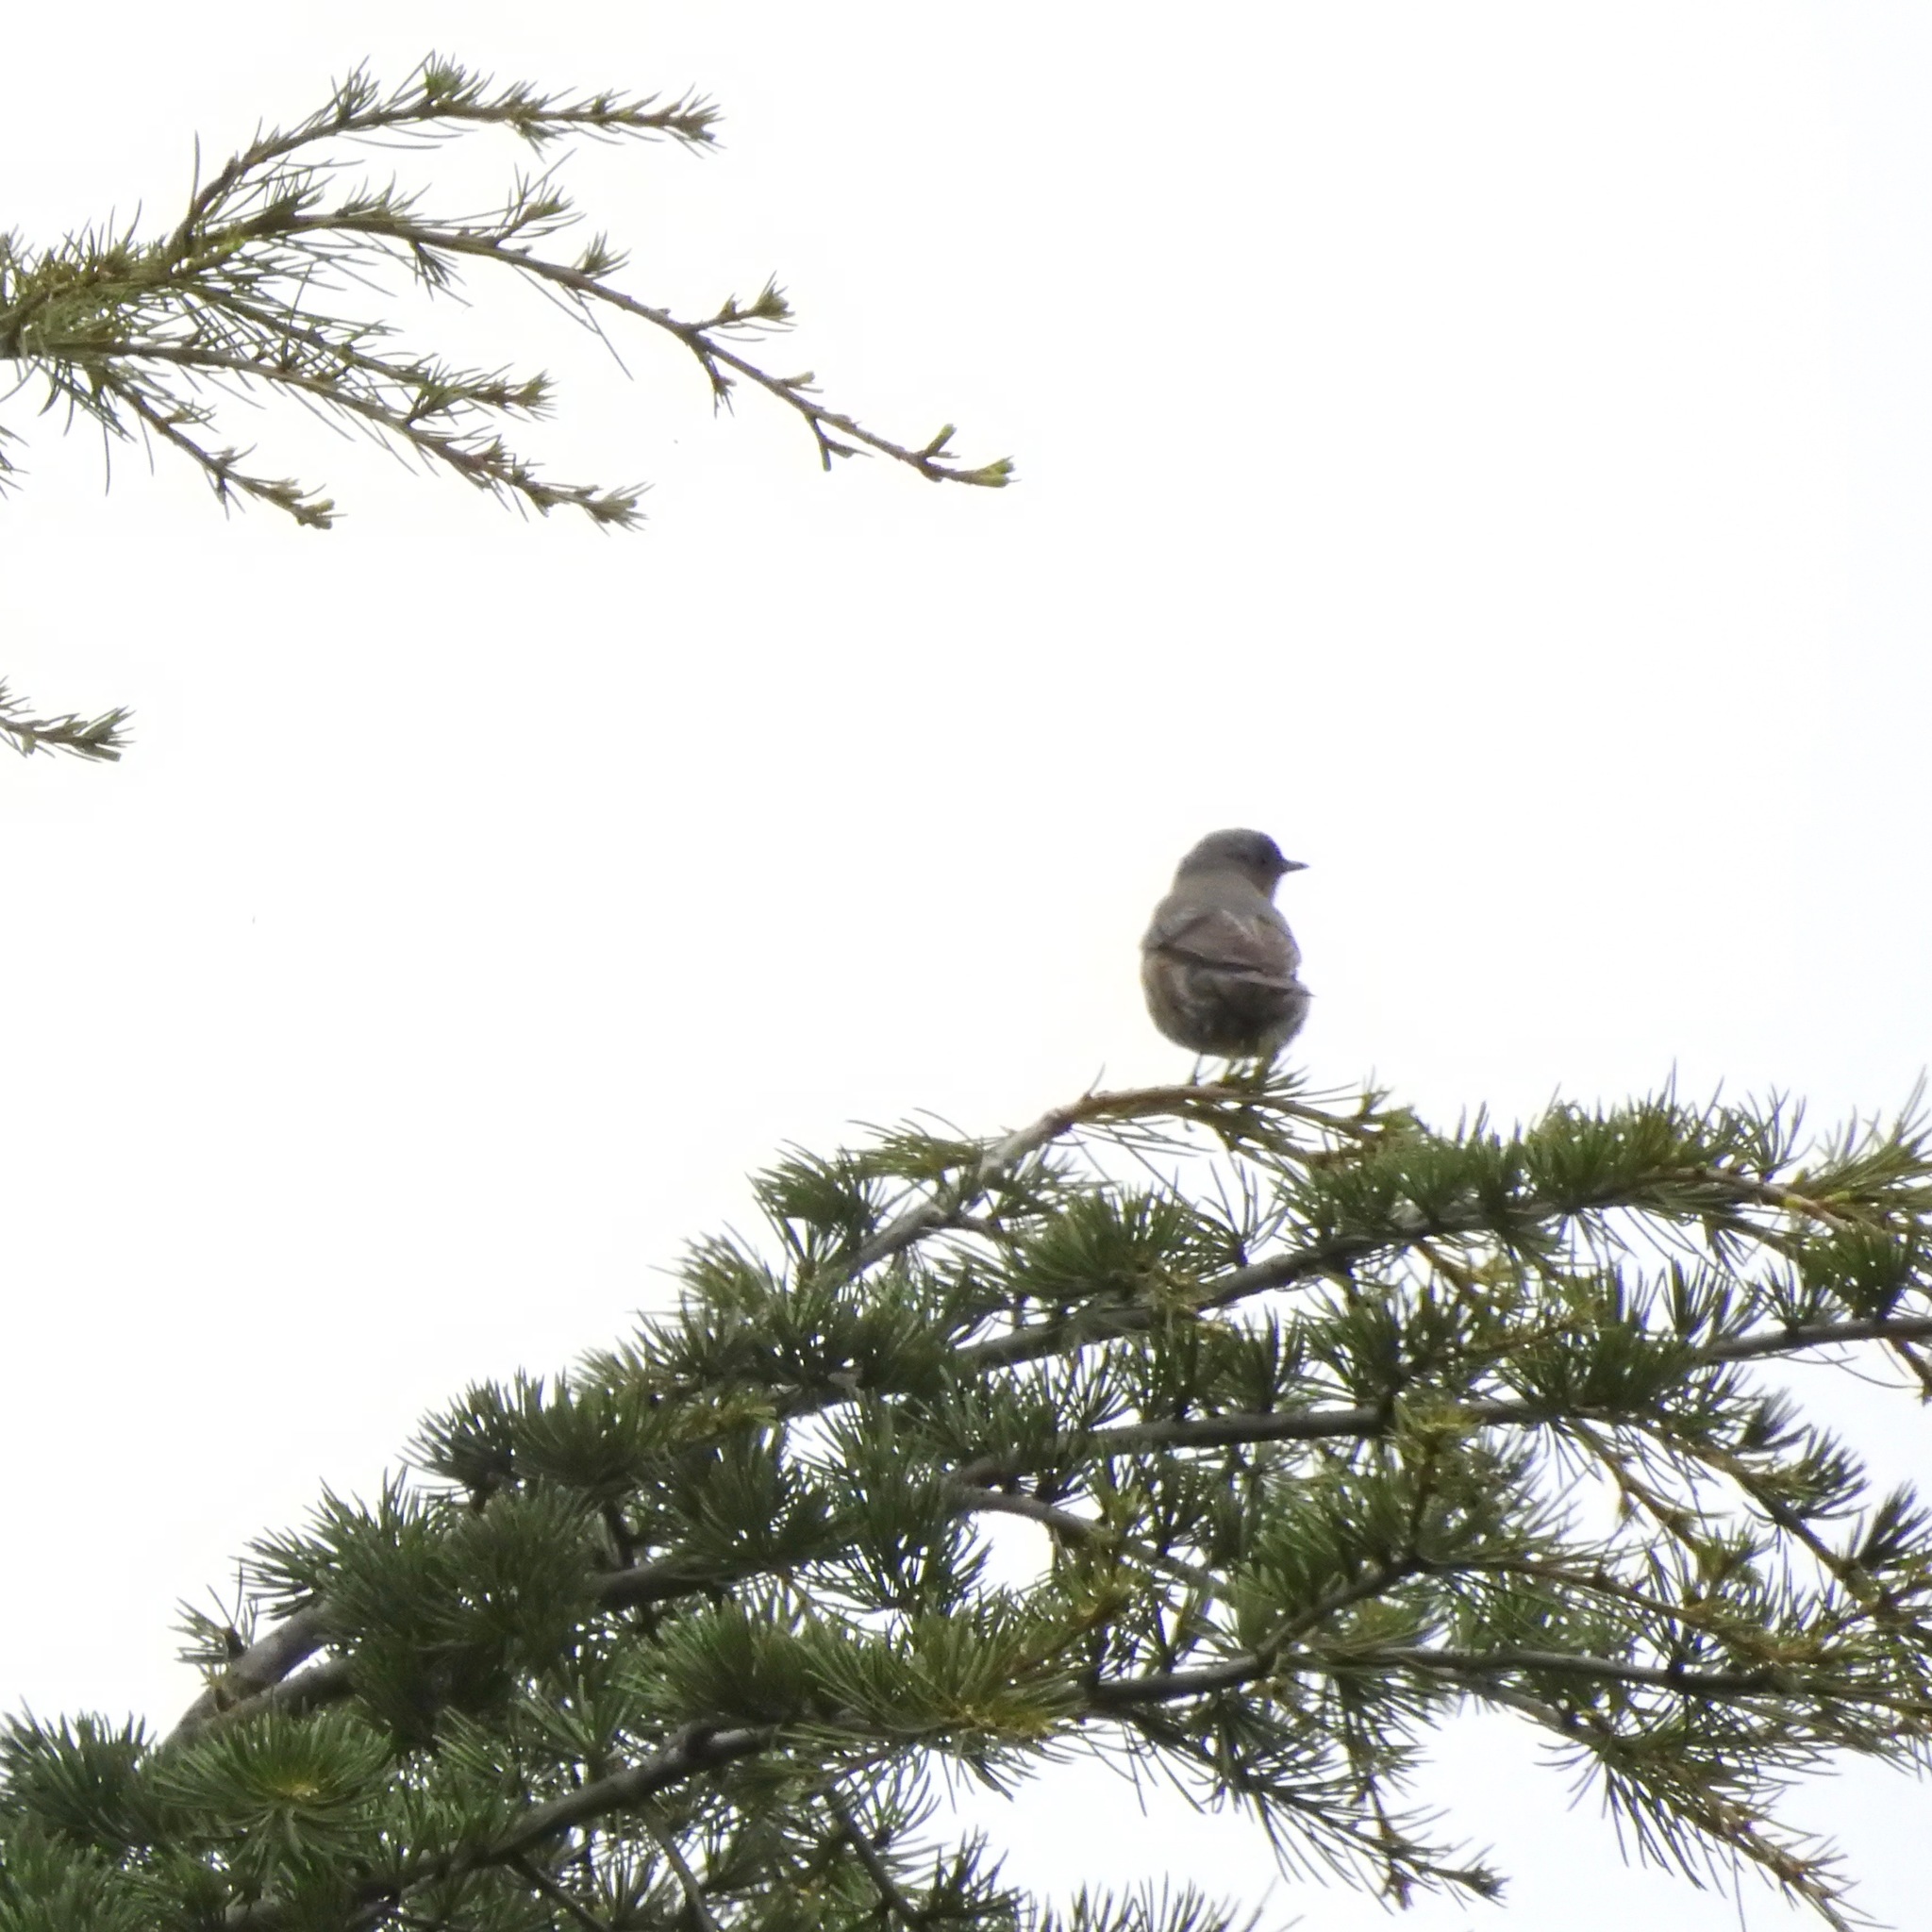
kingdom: Animalia
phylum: Chordata
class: Aves
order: Passeriformes
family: Turdidae
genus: Sialia
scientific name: Sialia mexicana
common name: Western bluebird
